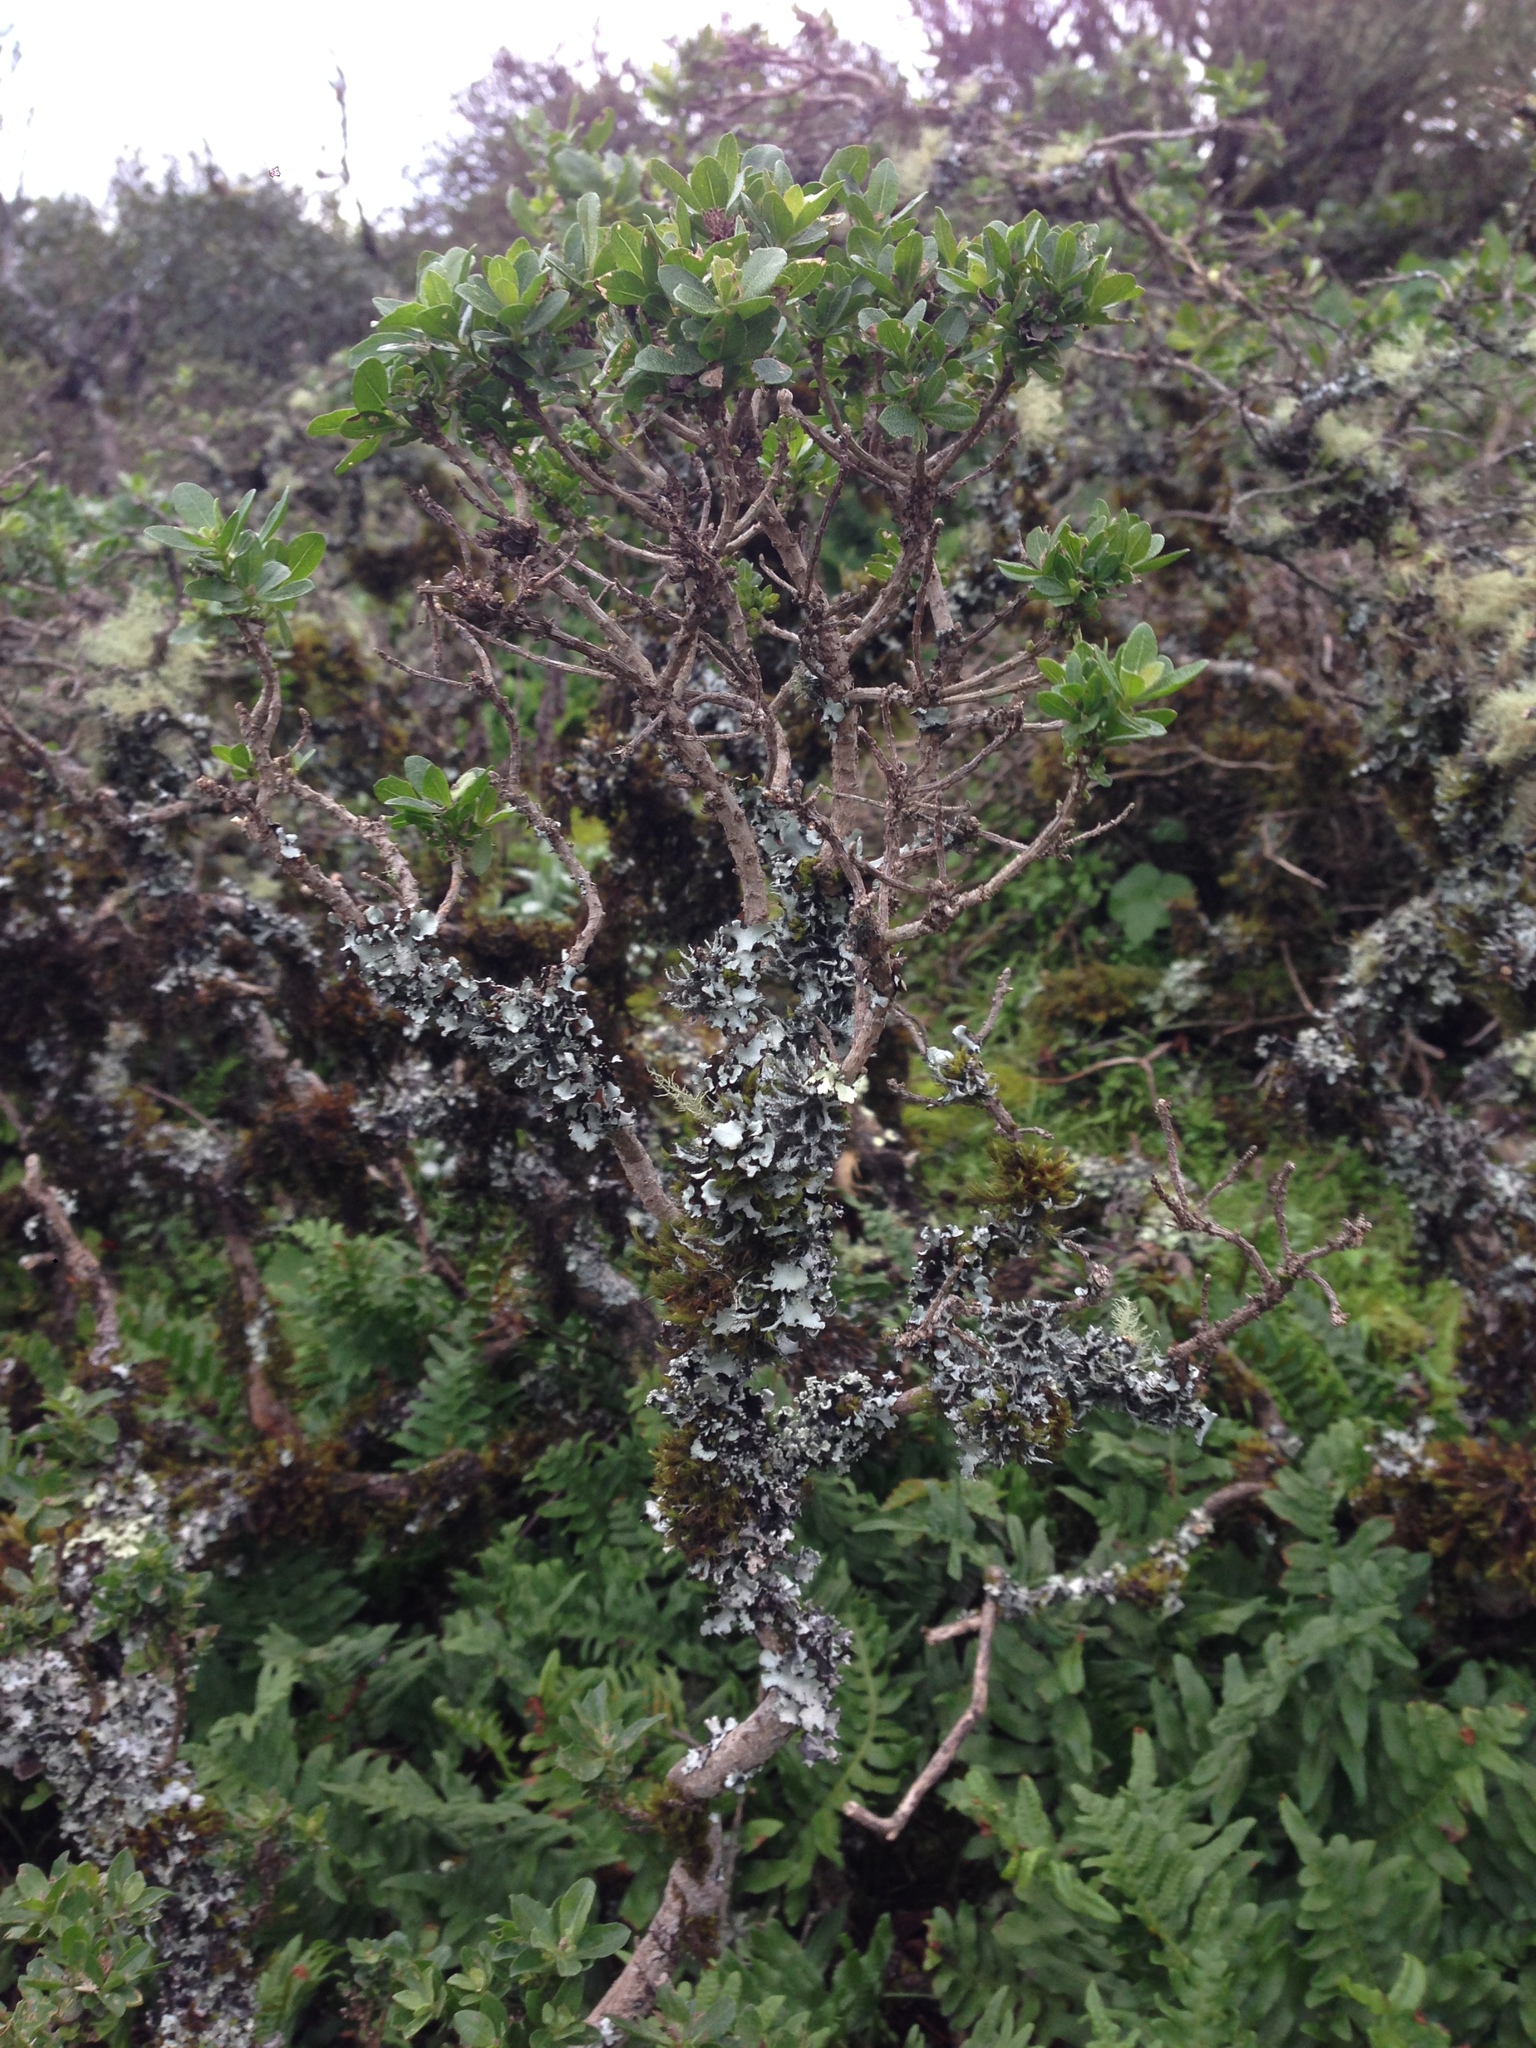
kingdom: Plantae
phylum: Tracheophyta
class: Magnoliopsida
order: Asterales
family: Asteraceae
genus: Baccharis
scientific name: Baccharis pilularis
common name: Coyotebrush
